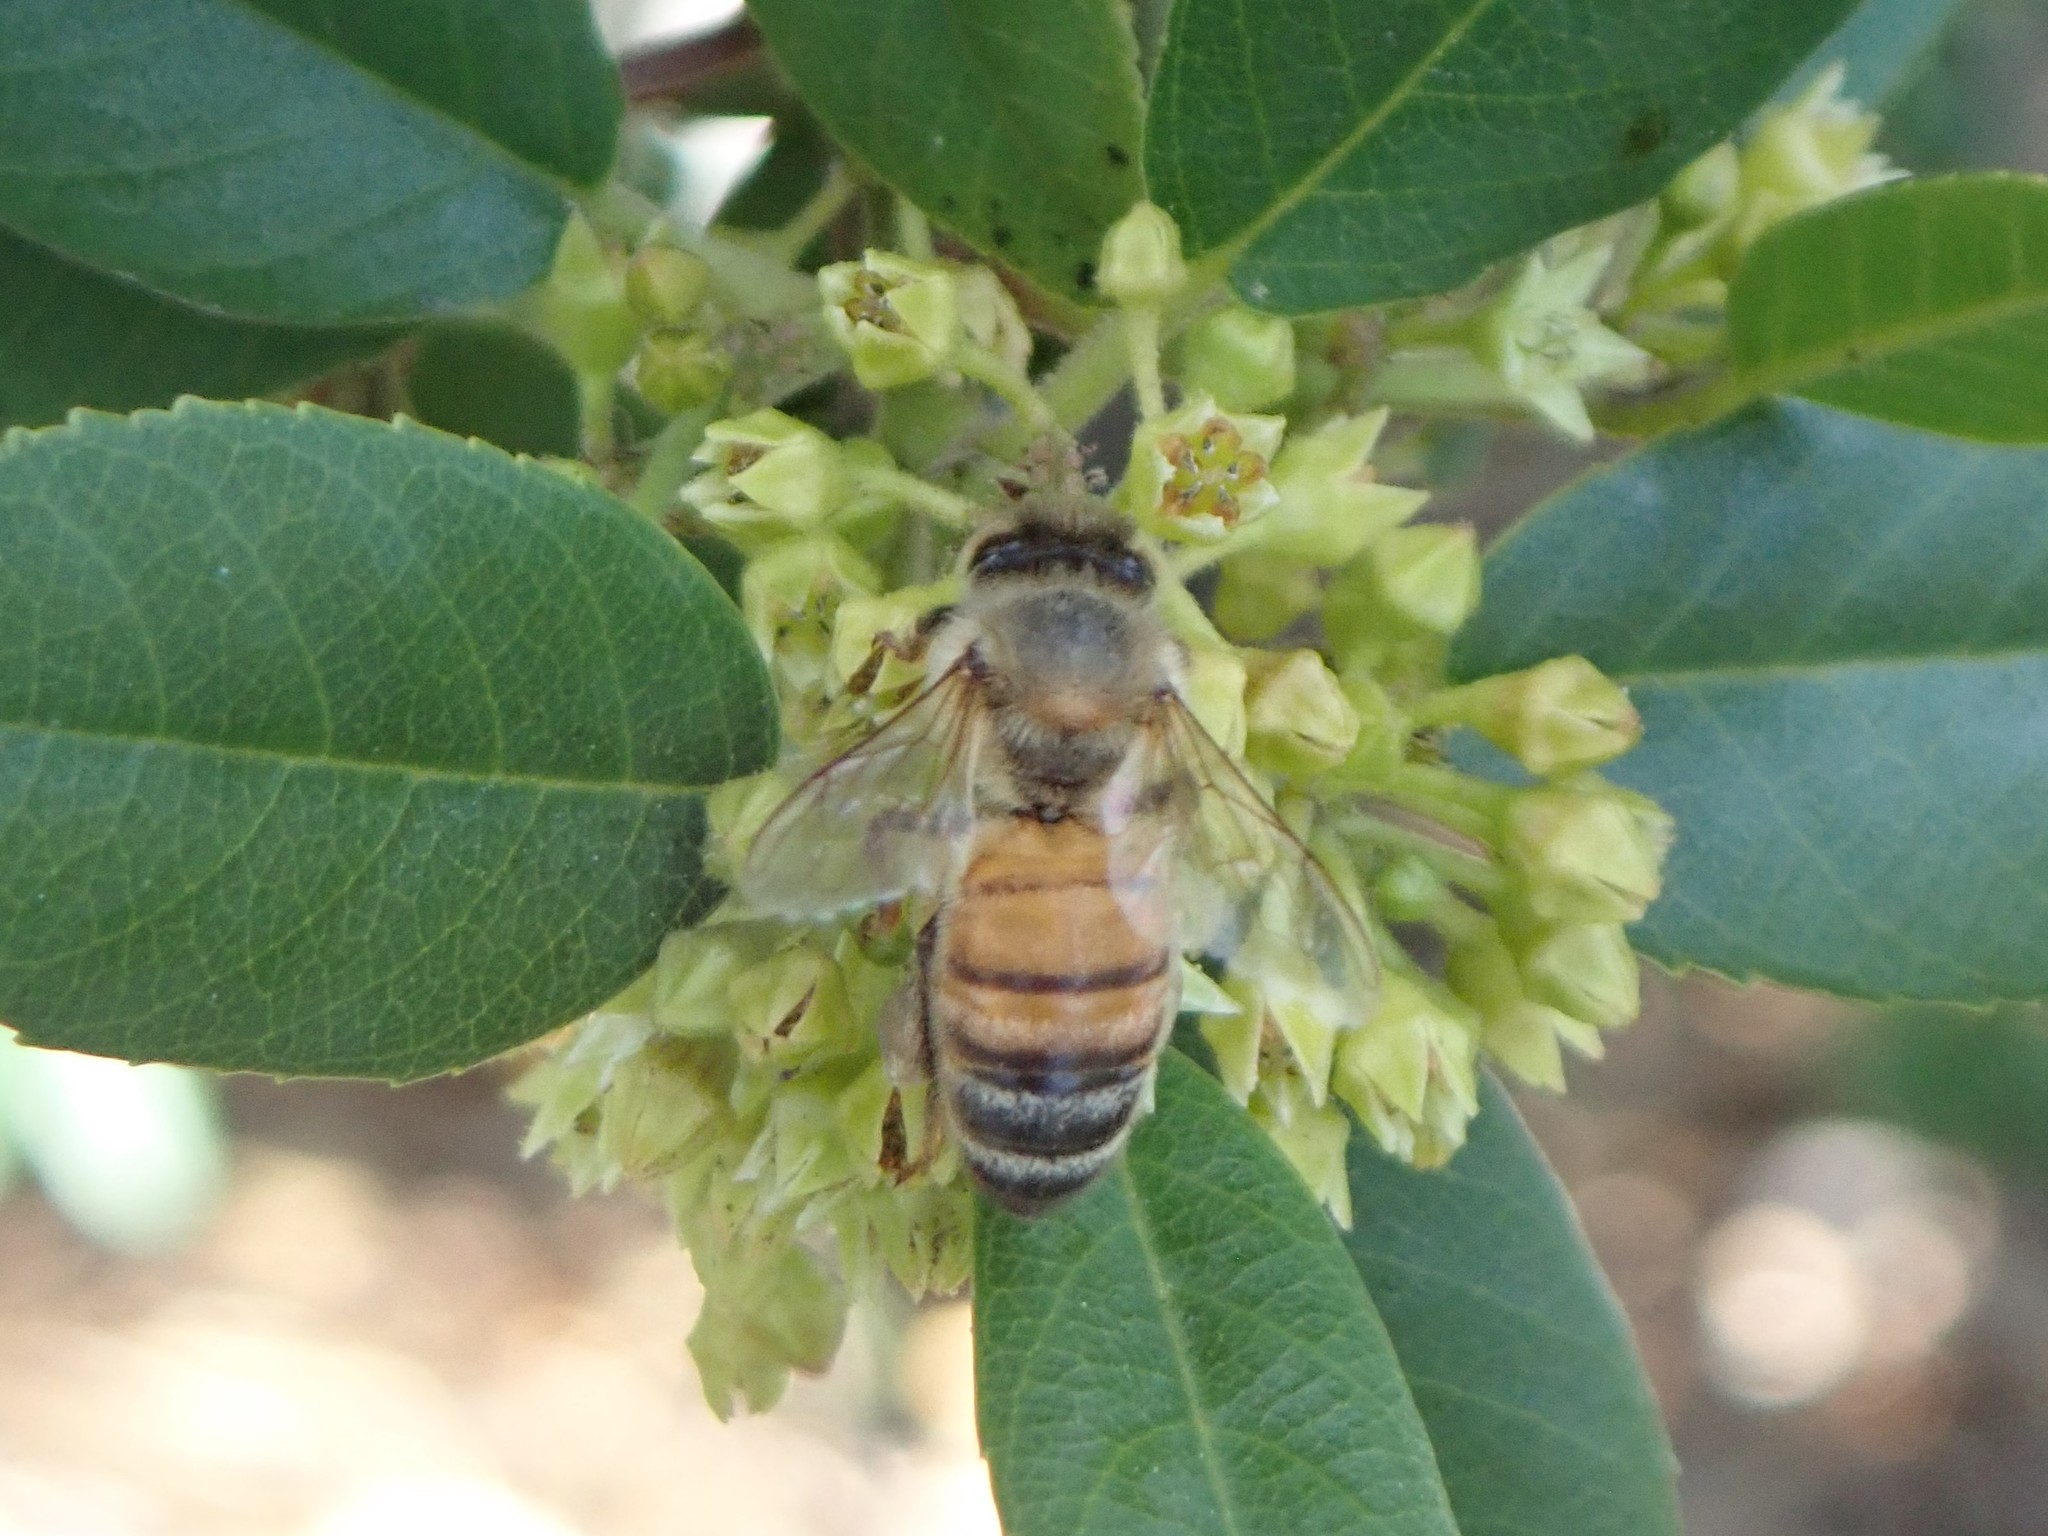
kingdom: Animalia
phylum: Arthropoda
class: Insecta
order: Hymenoptera
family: Apidae
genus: Apis
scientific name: Apis mellifera
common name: Honey bee
